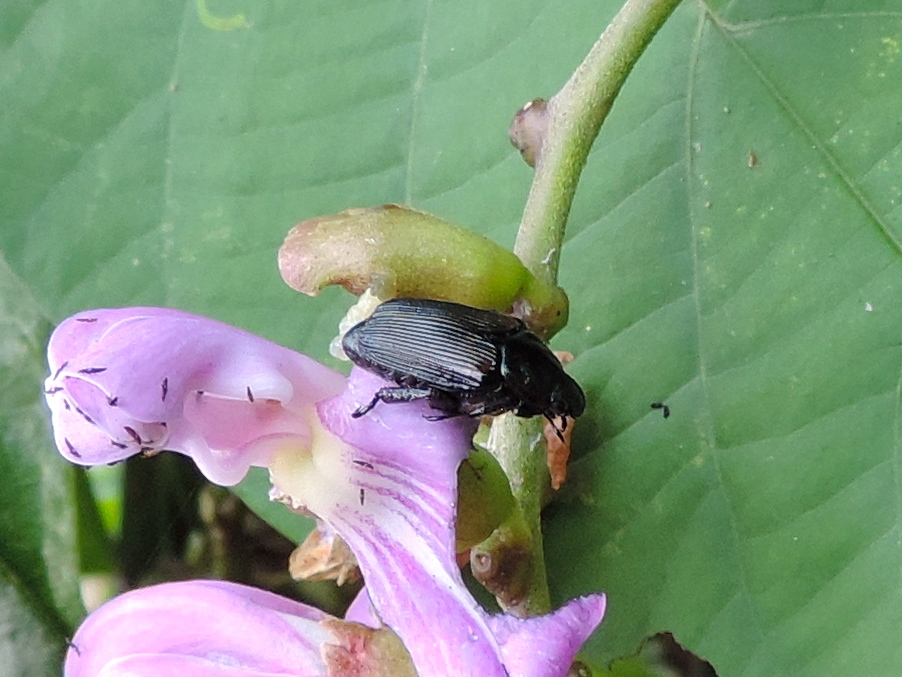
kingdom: Animalia
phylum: Arthropoda
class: Insecta
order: Coleoptera
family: Scarabaeidae
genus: Strigoderma
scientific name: Strigoderma
